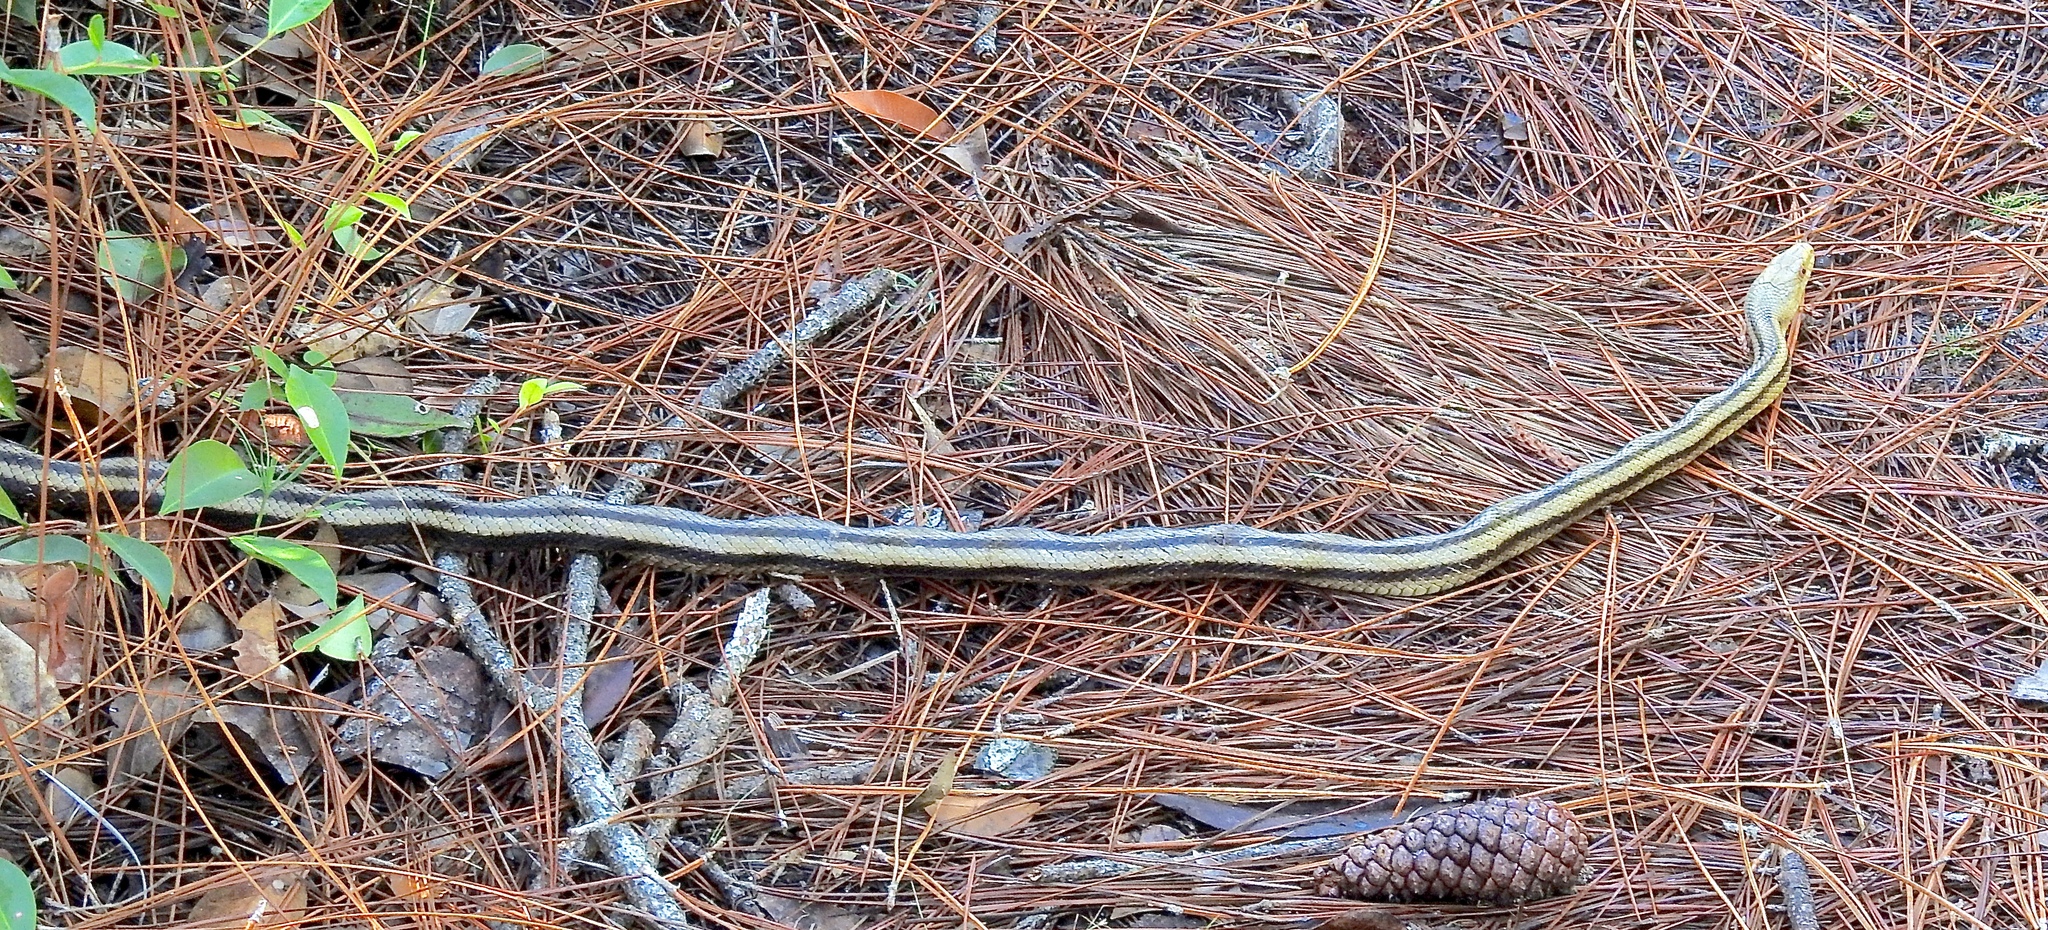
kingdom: Animalia
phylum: Chordata
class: Squamata
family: Colubridae
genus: Pantherophis
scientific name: Pantherophis alleghaniensis
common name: Eastern rat snake
